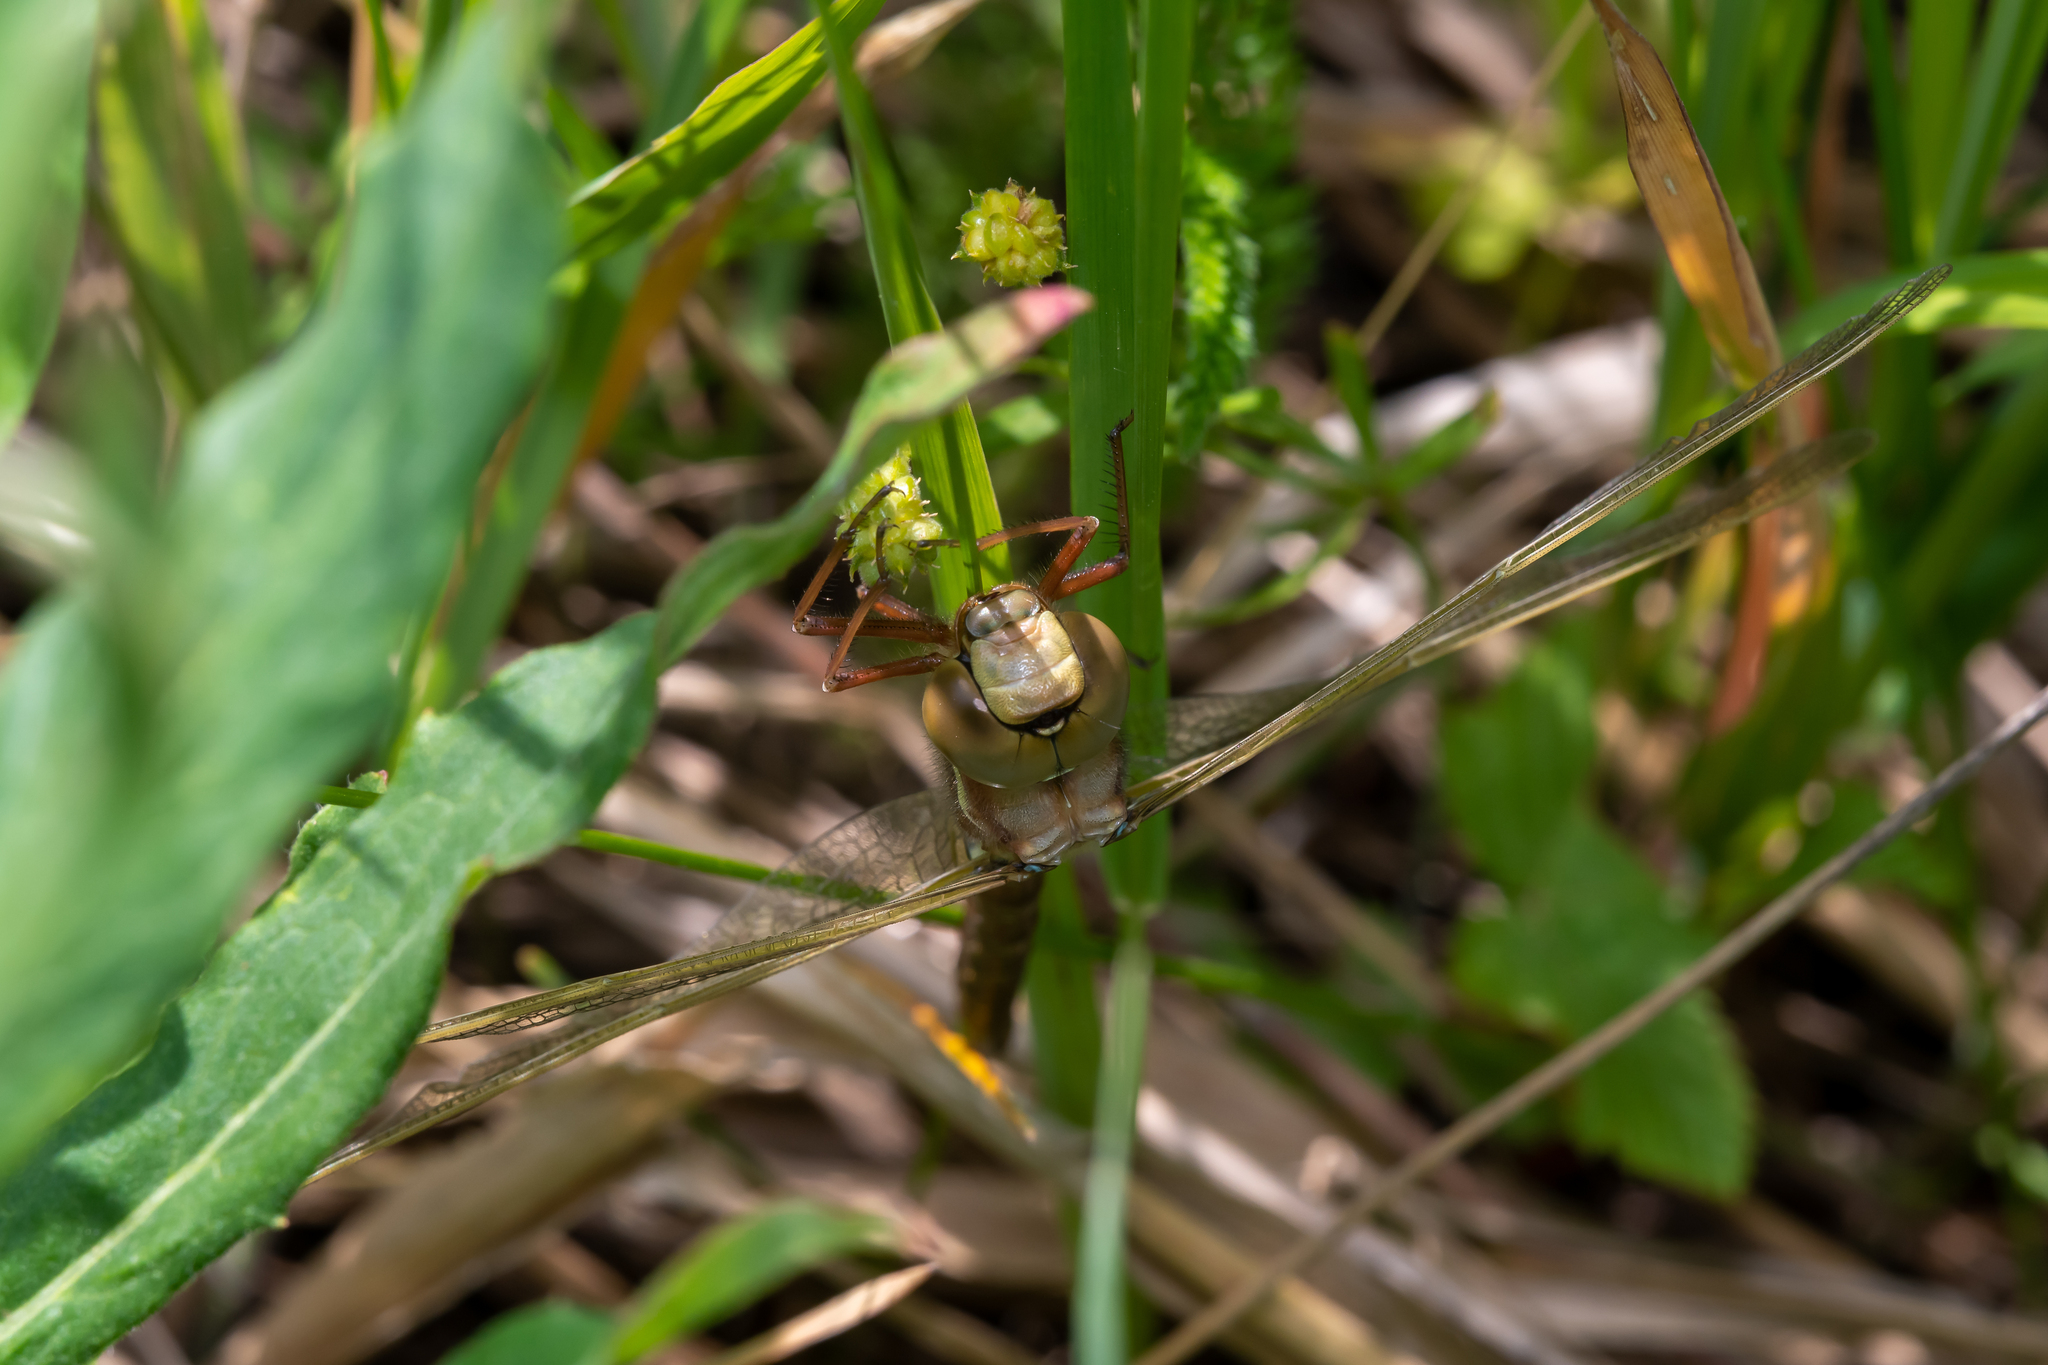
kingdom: Animalia
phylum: Arthropoda
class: Insecta
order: Odonata
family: Aeshnidae
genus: Aeshna
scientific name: Aeshna grandis
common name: Brown hawker
